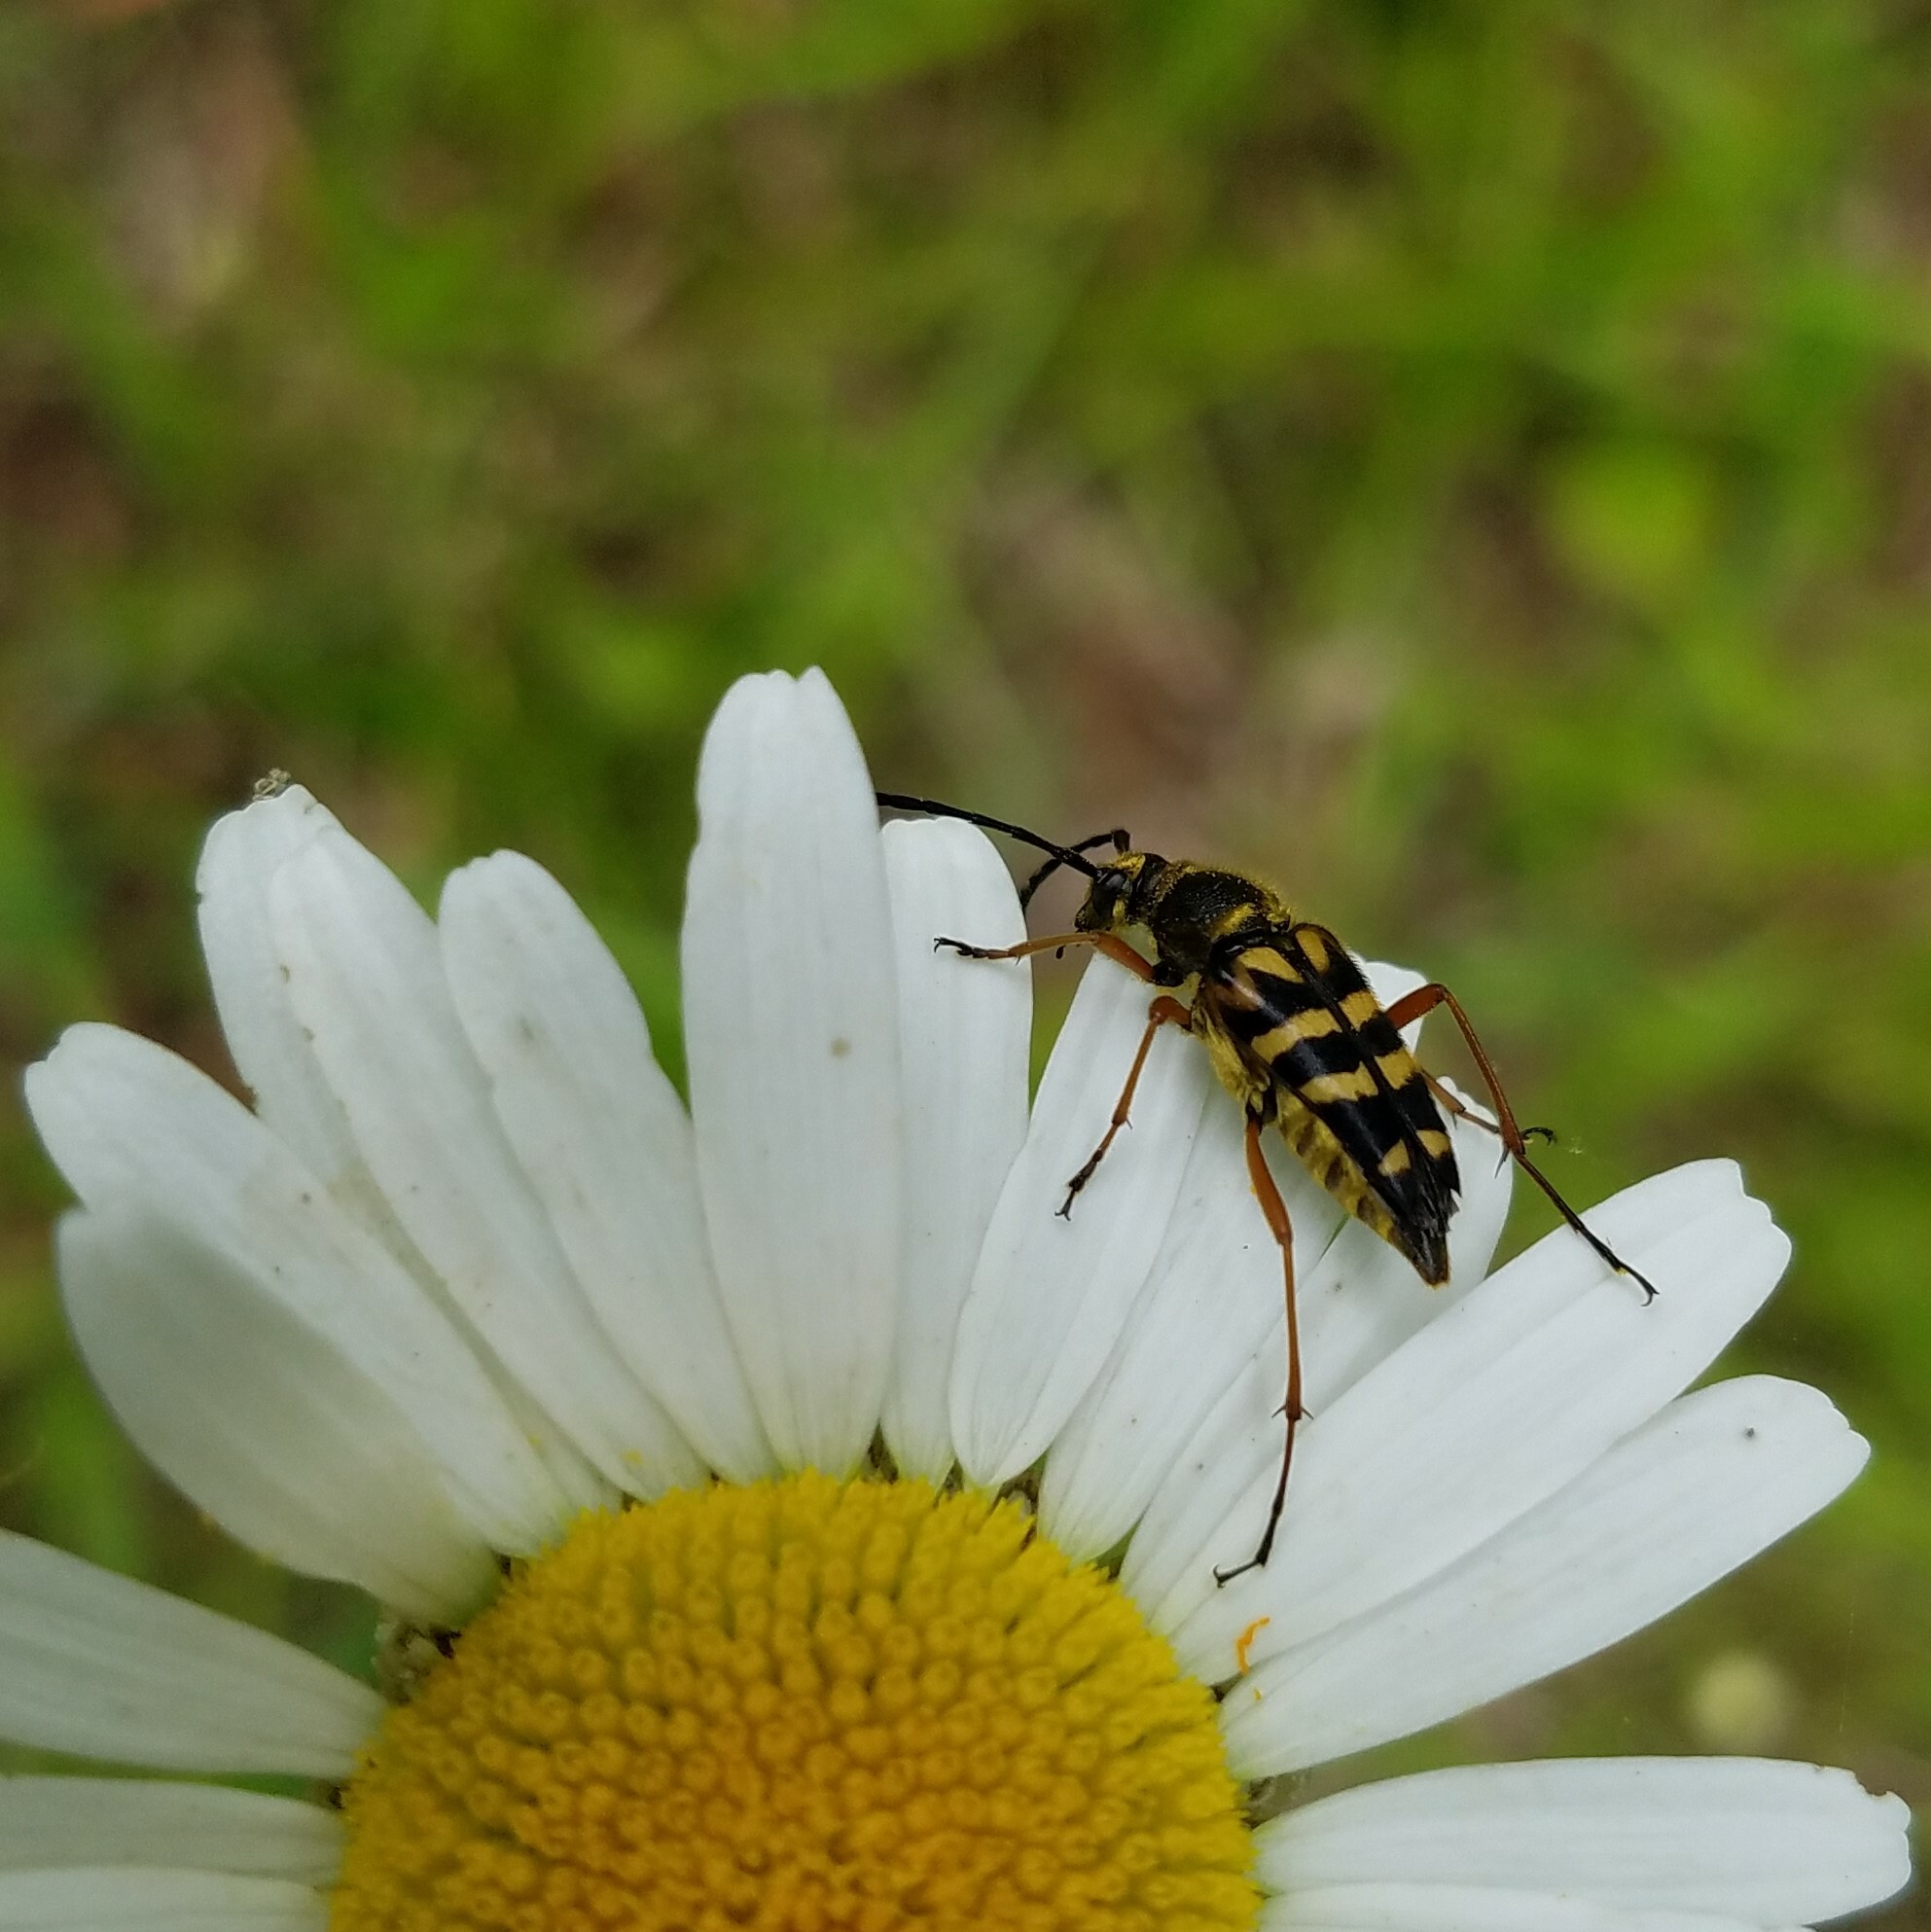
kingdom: Animalia
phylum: Arthropoda
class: Insecta
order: Coleoptera
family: Cerambycidae
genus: Typocerus
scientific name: Typocerus zebra
